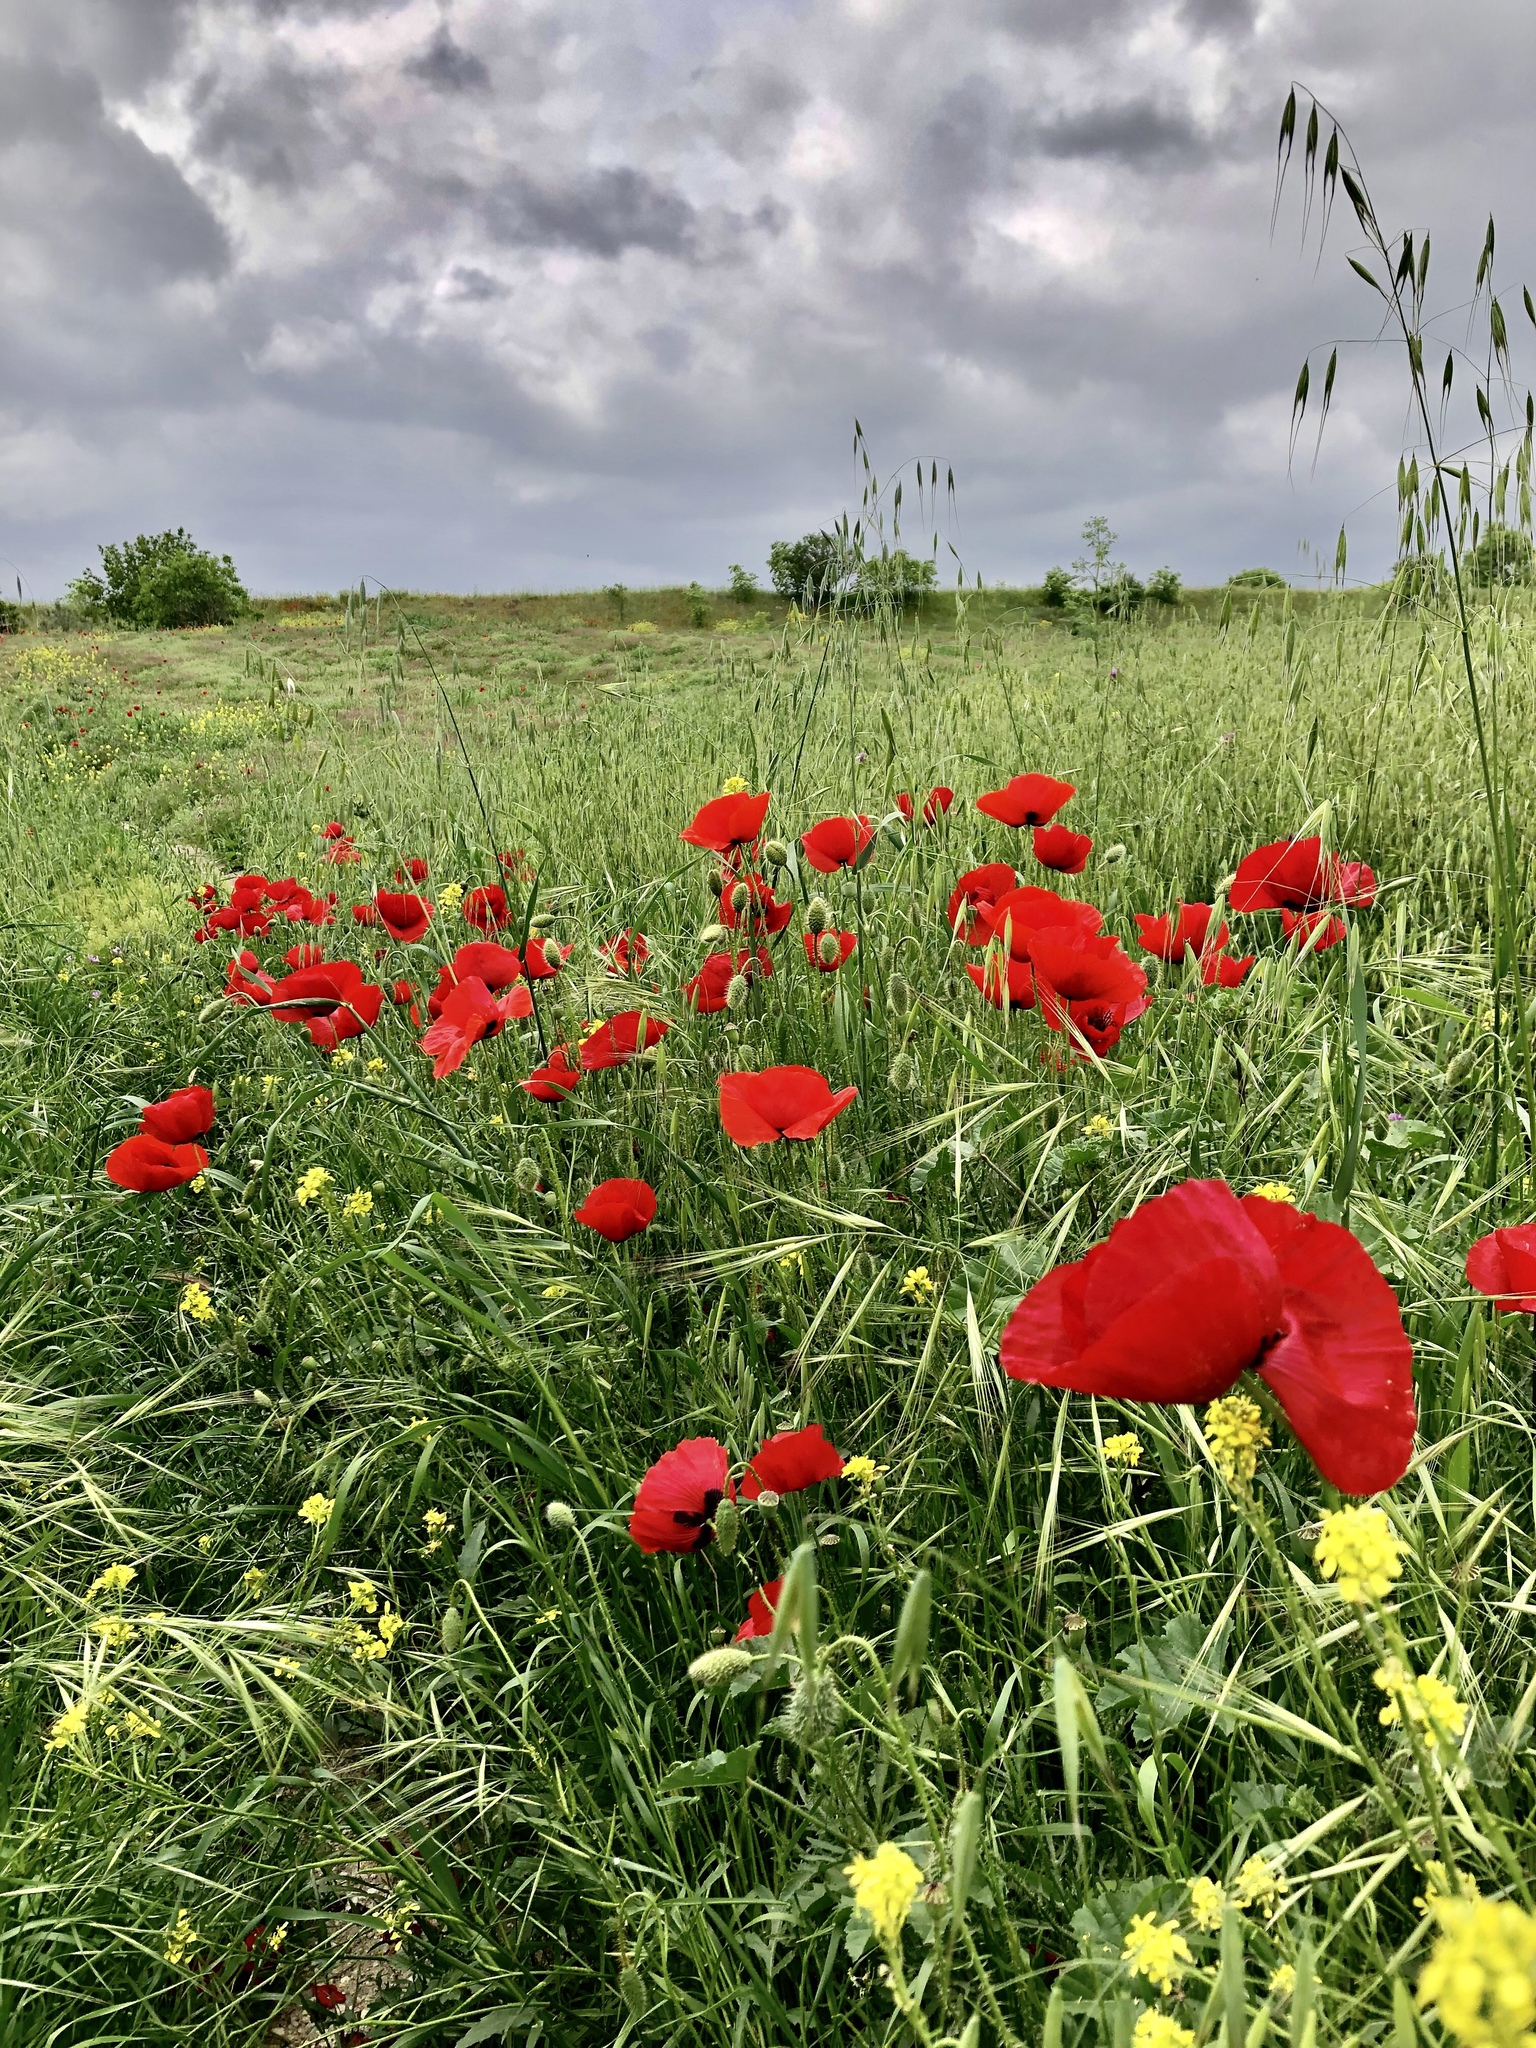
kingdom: Plantae
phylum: Tracheophyta
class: Magnoliopsida
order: Ranunculales
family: Papaveraceae
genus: Papaver
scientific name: Papaver rhoeas
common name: Corn poppy
